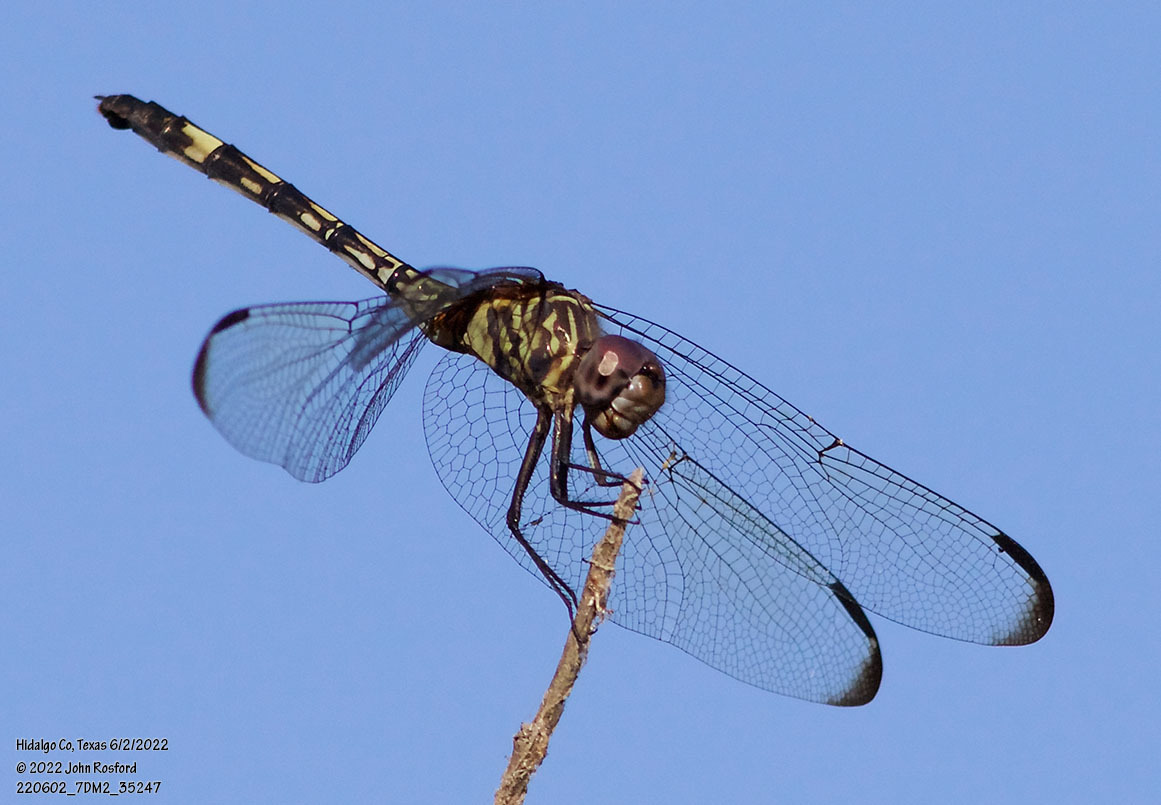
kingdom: Animalia
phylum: Arthropoda
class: Insecta
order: Odonata
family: Libellulidae
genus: Dythemis
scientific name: Dythemis nigrescens
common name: Black setwing
